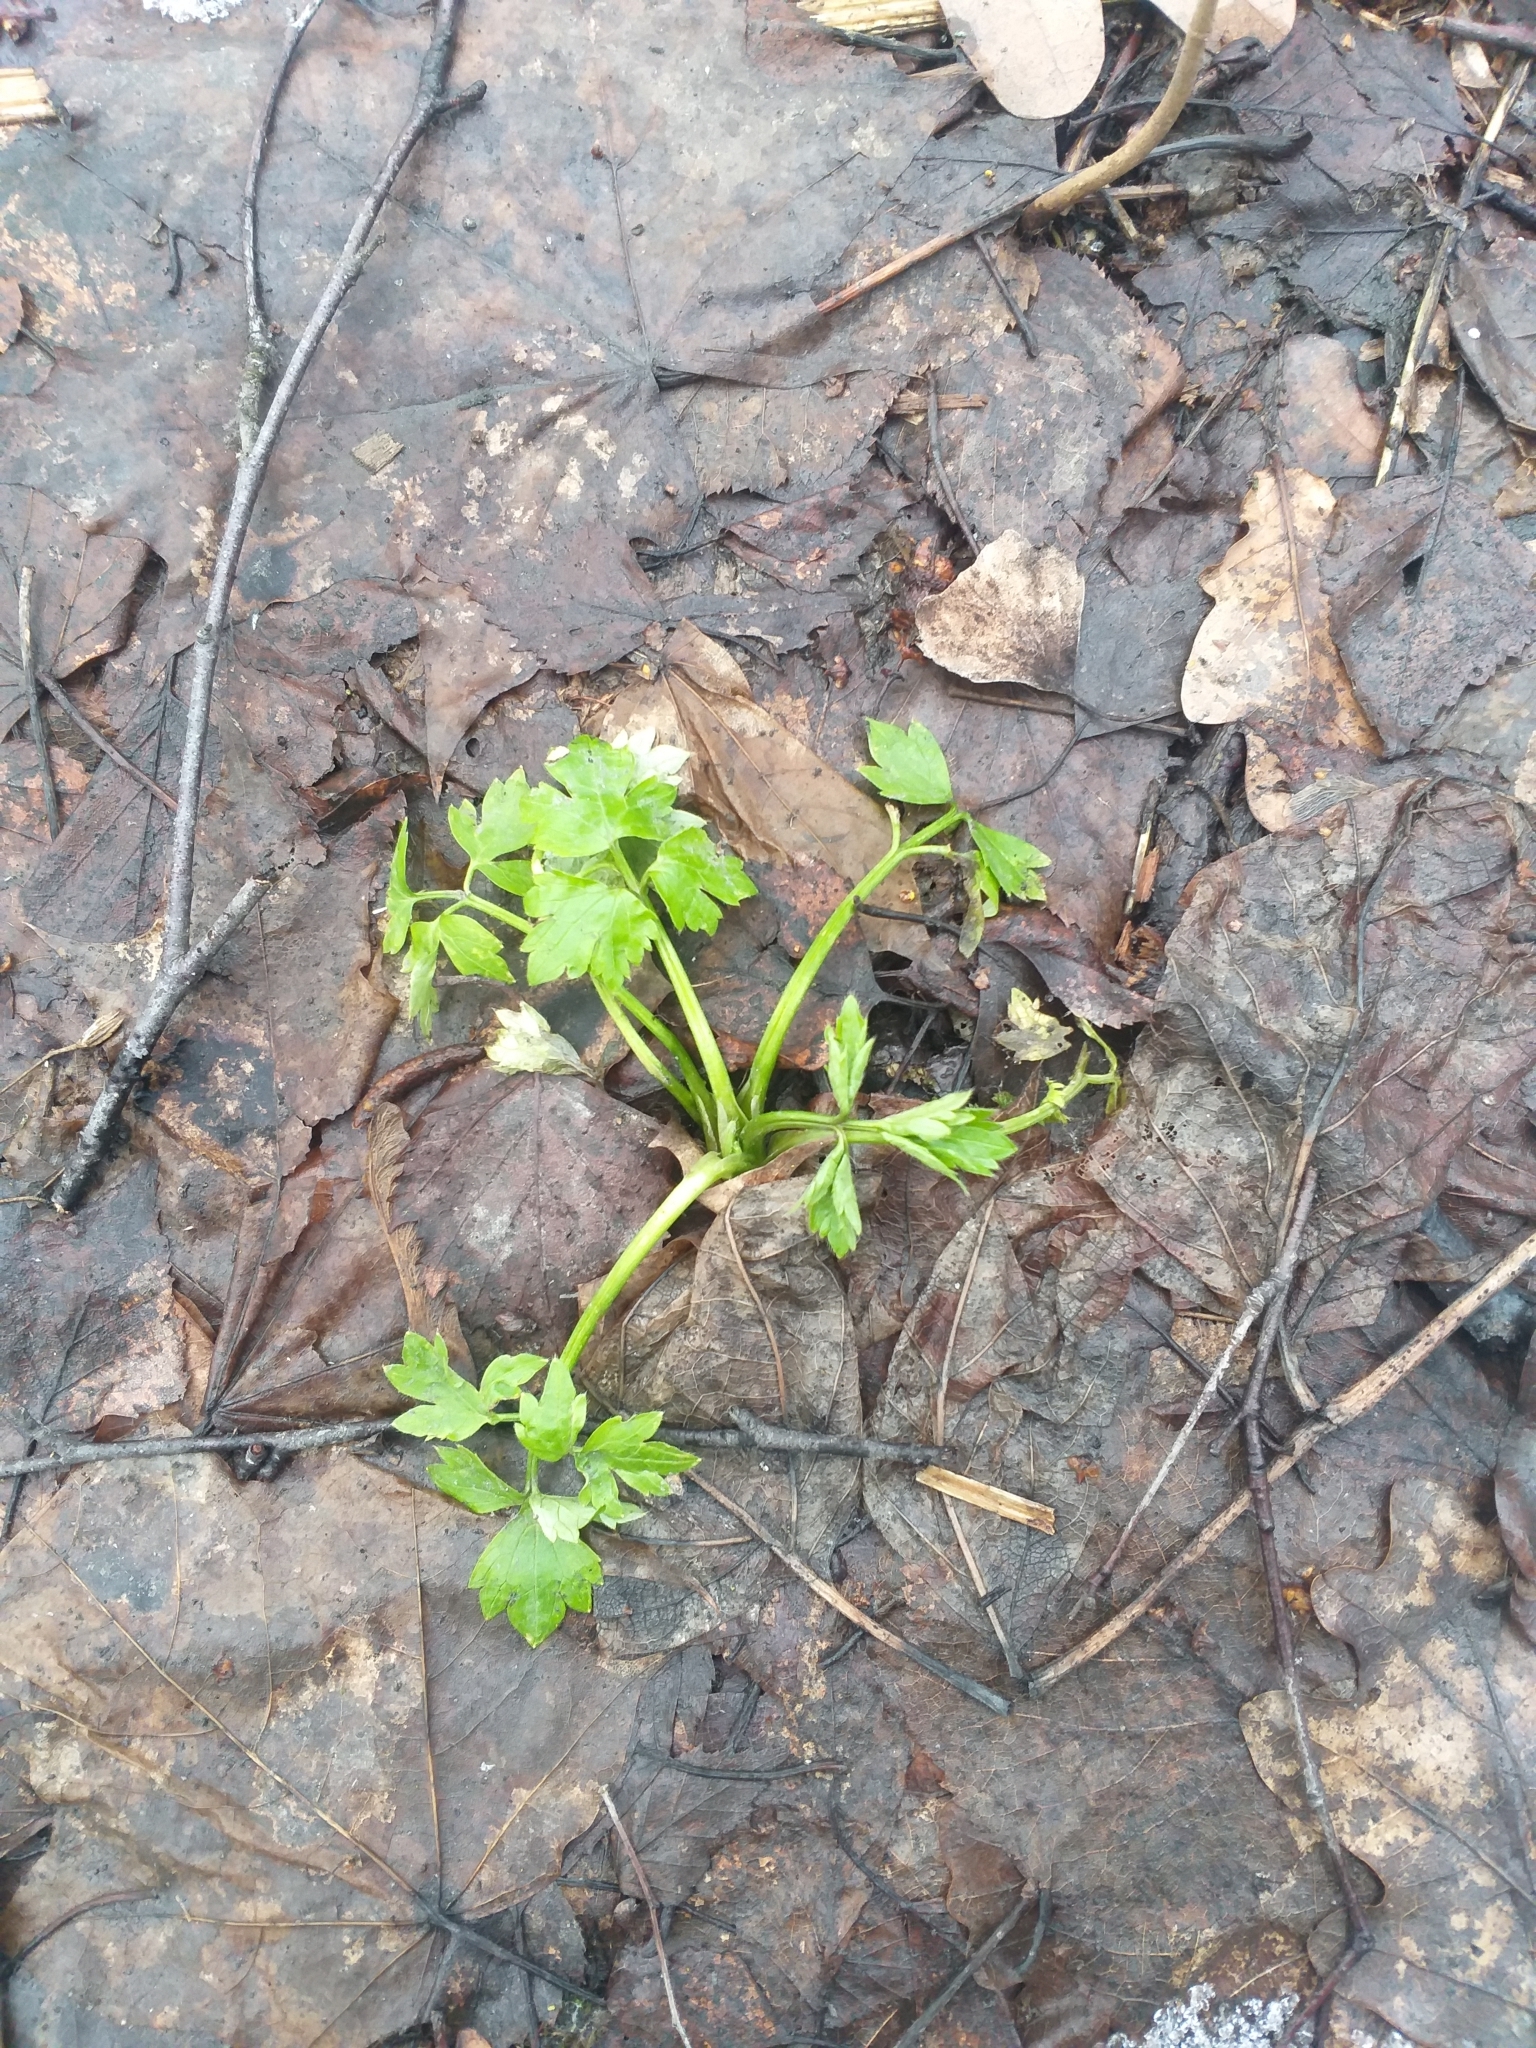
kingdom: Plantae
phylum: Tracheophyta
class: Magnoliopsida
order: Ranunculales
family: Ranunculaceae
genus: Ranunculus
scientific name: Ranunculus repens
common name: Creeping buttercup
